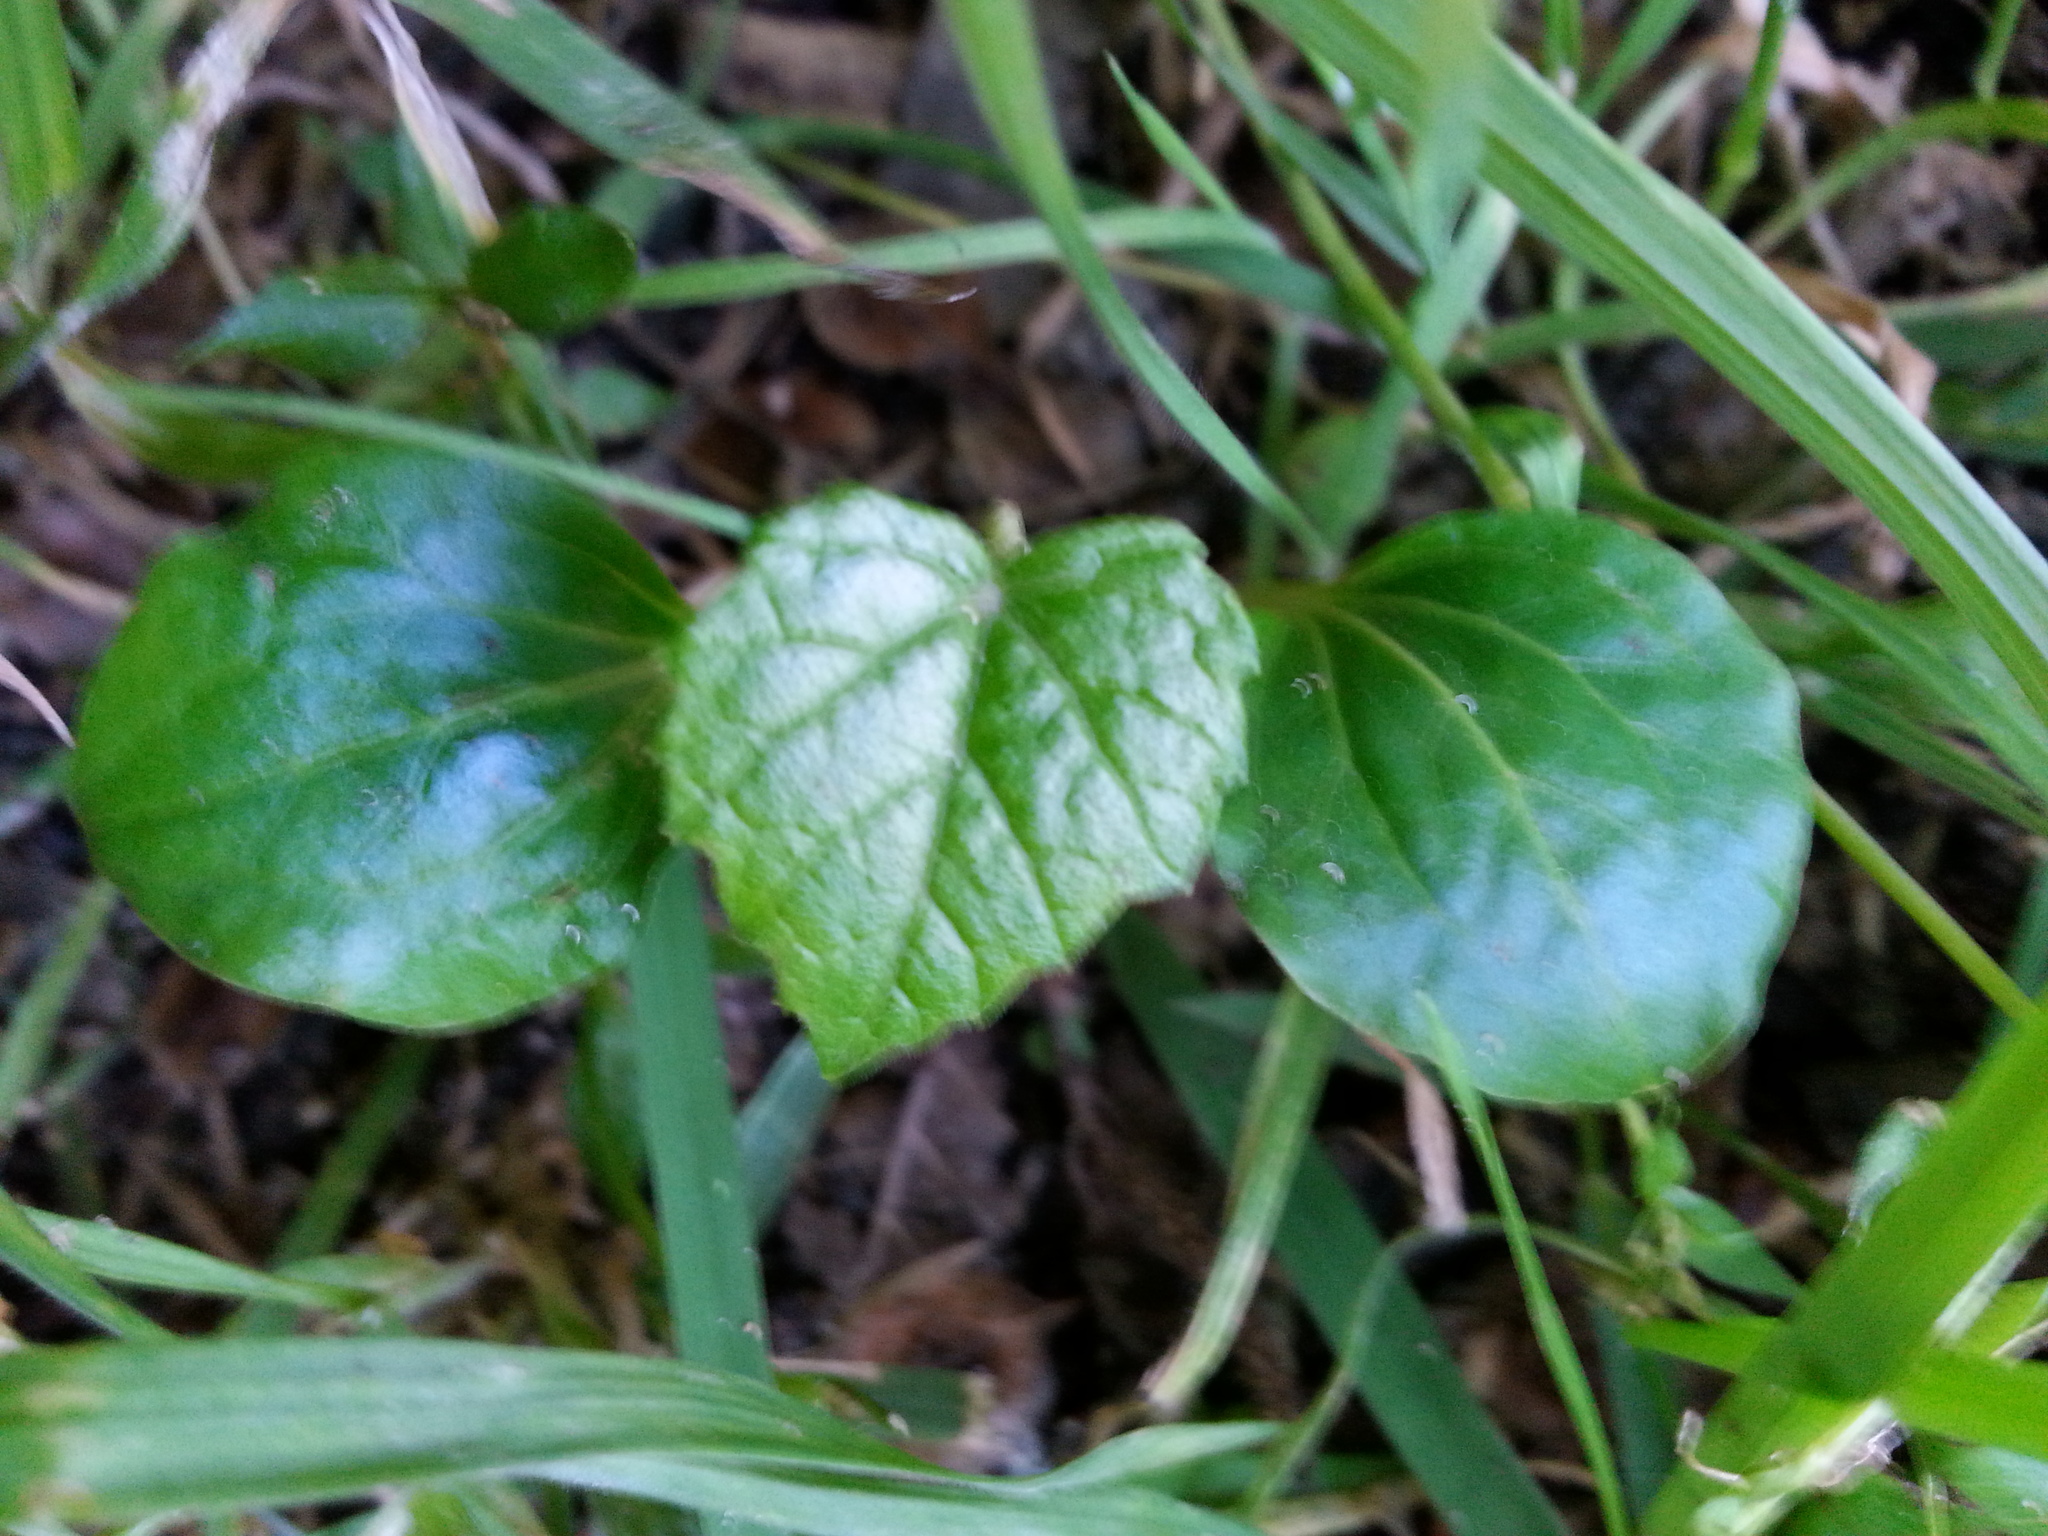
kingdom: Plantae
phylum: Tracheophyta
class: Magnoliopsida
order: Vitales
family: Vitaceae
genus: Vitis
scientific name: Vitis mustangensis
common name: Mustang grape
